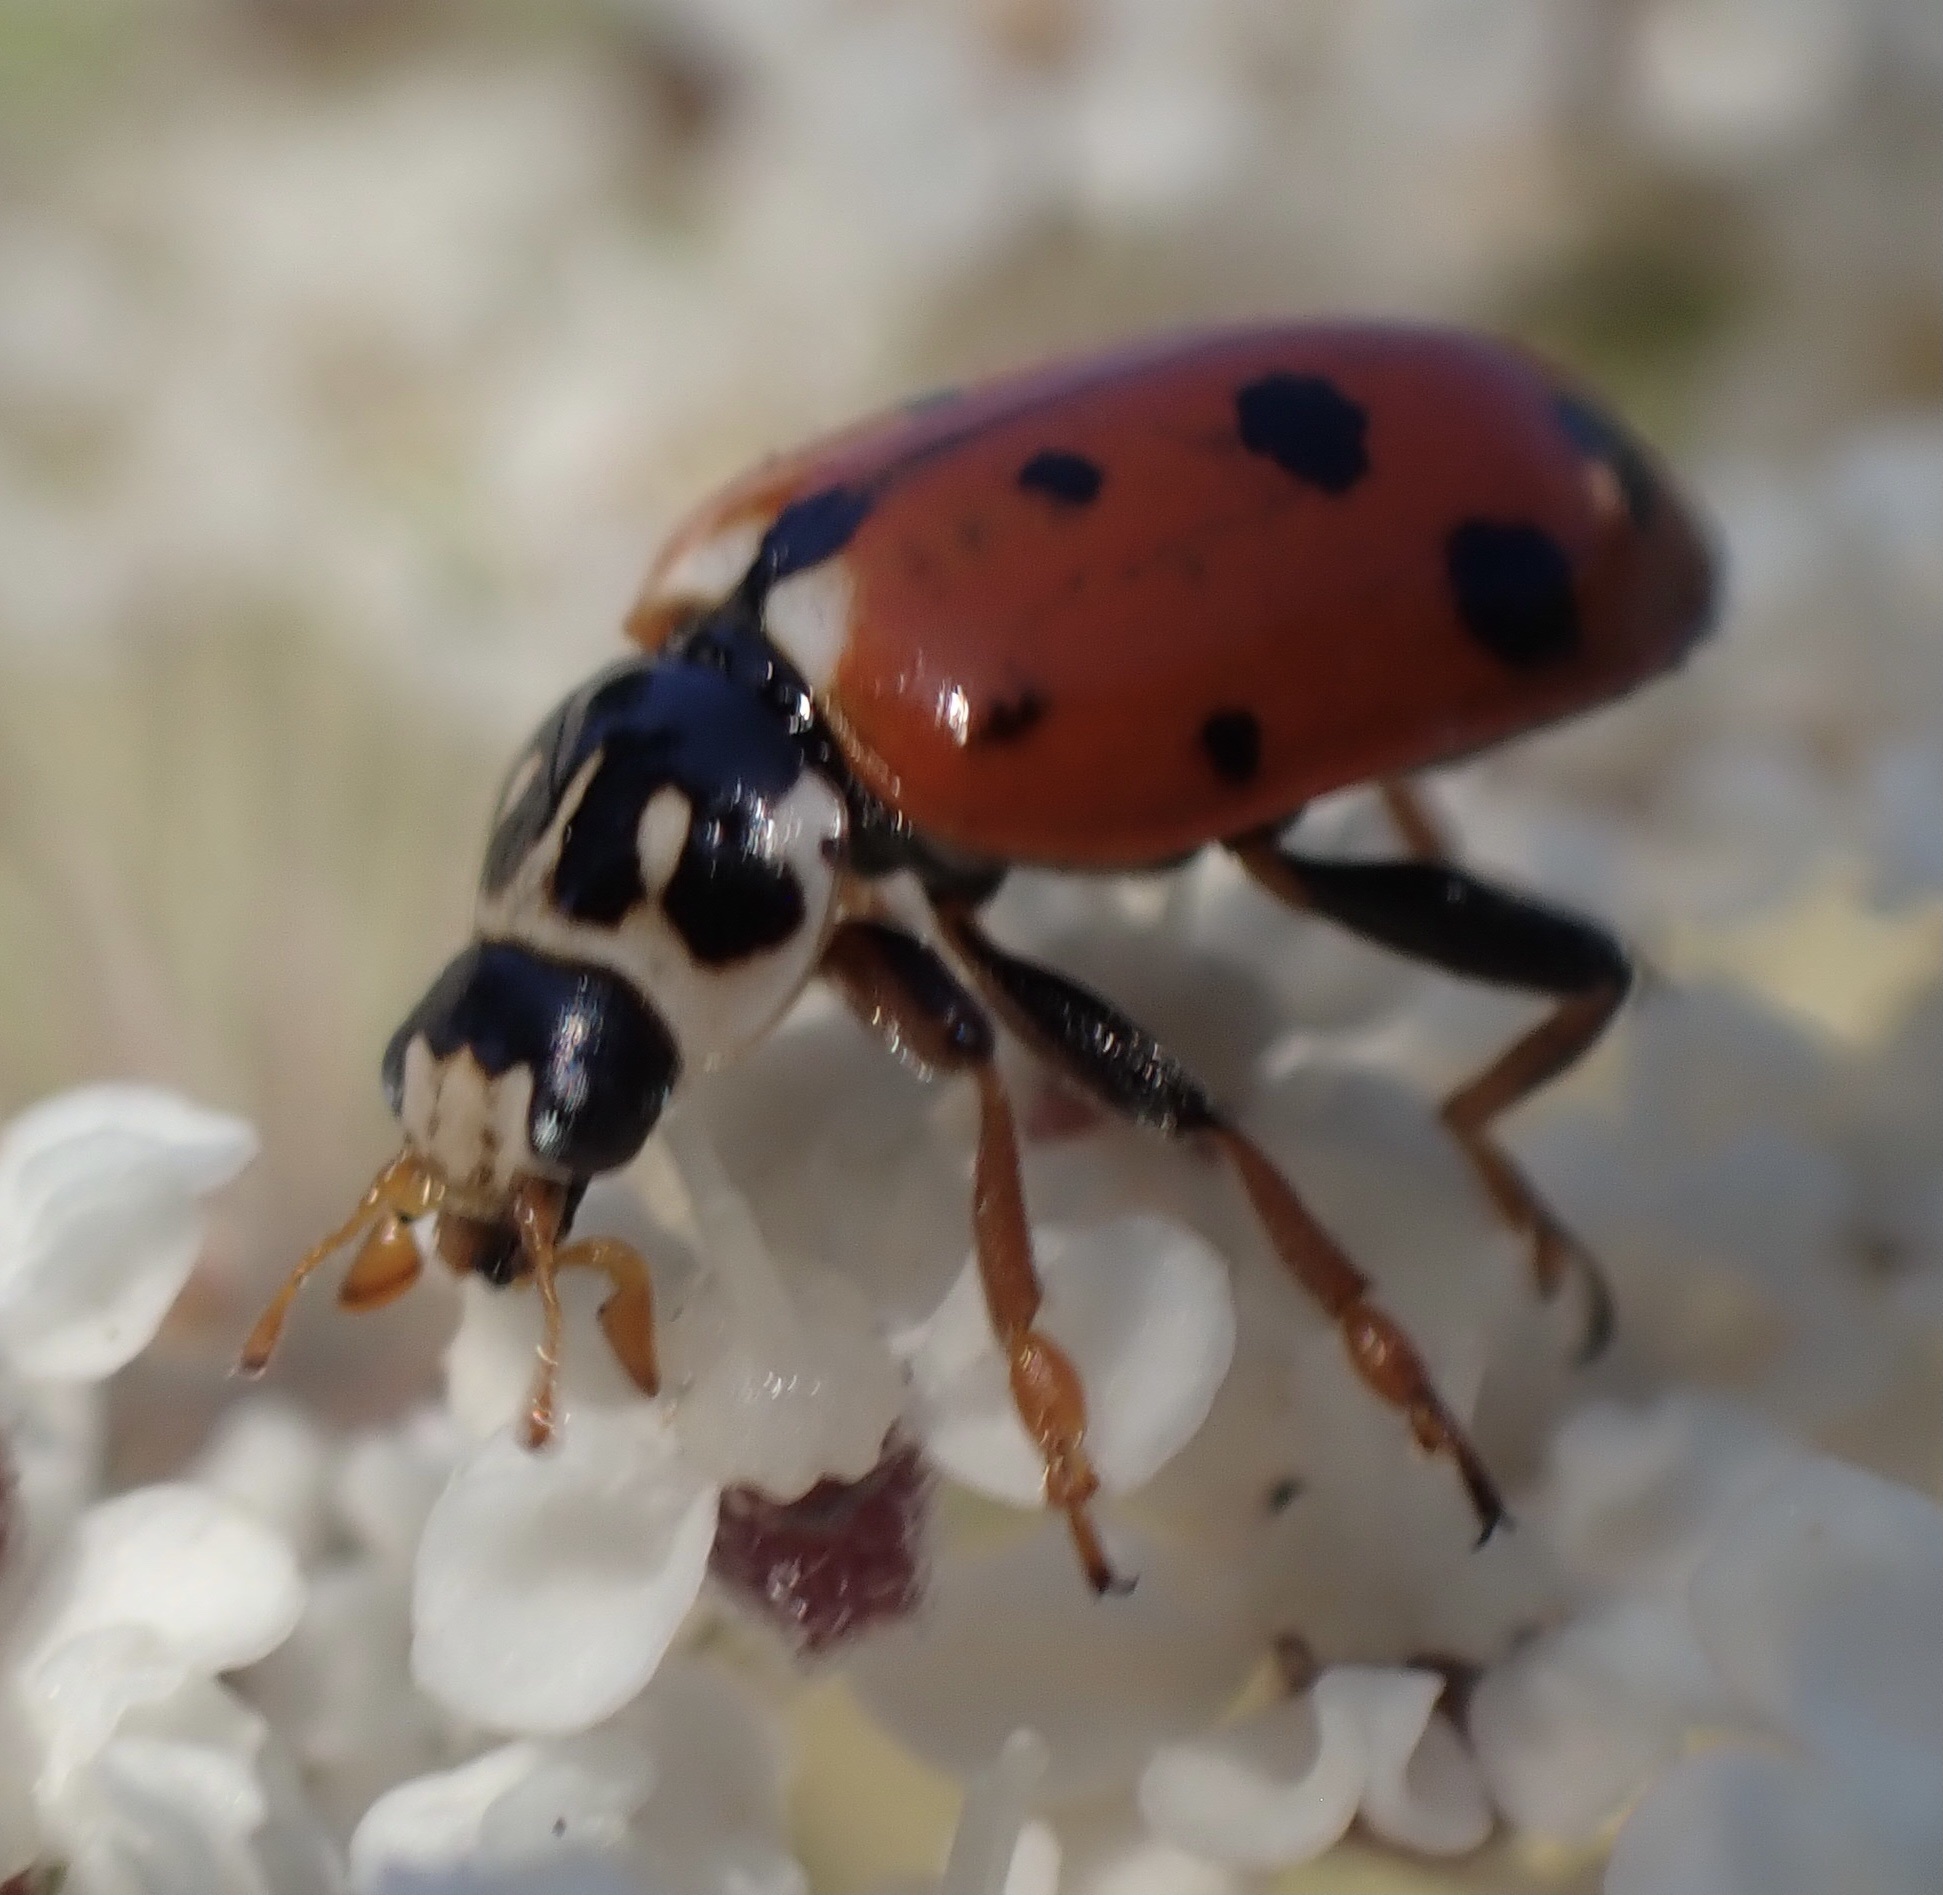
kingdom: Animalia
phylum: Arthropoda
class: Insecta
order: Coleoptera
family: Coccinellidae
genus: Hippodamia
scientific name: Hippodamia variegata
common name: Ladybird beetle
